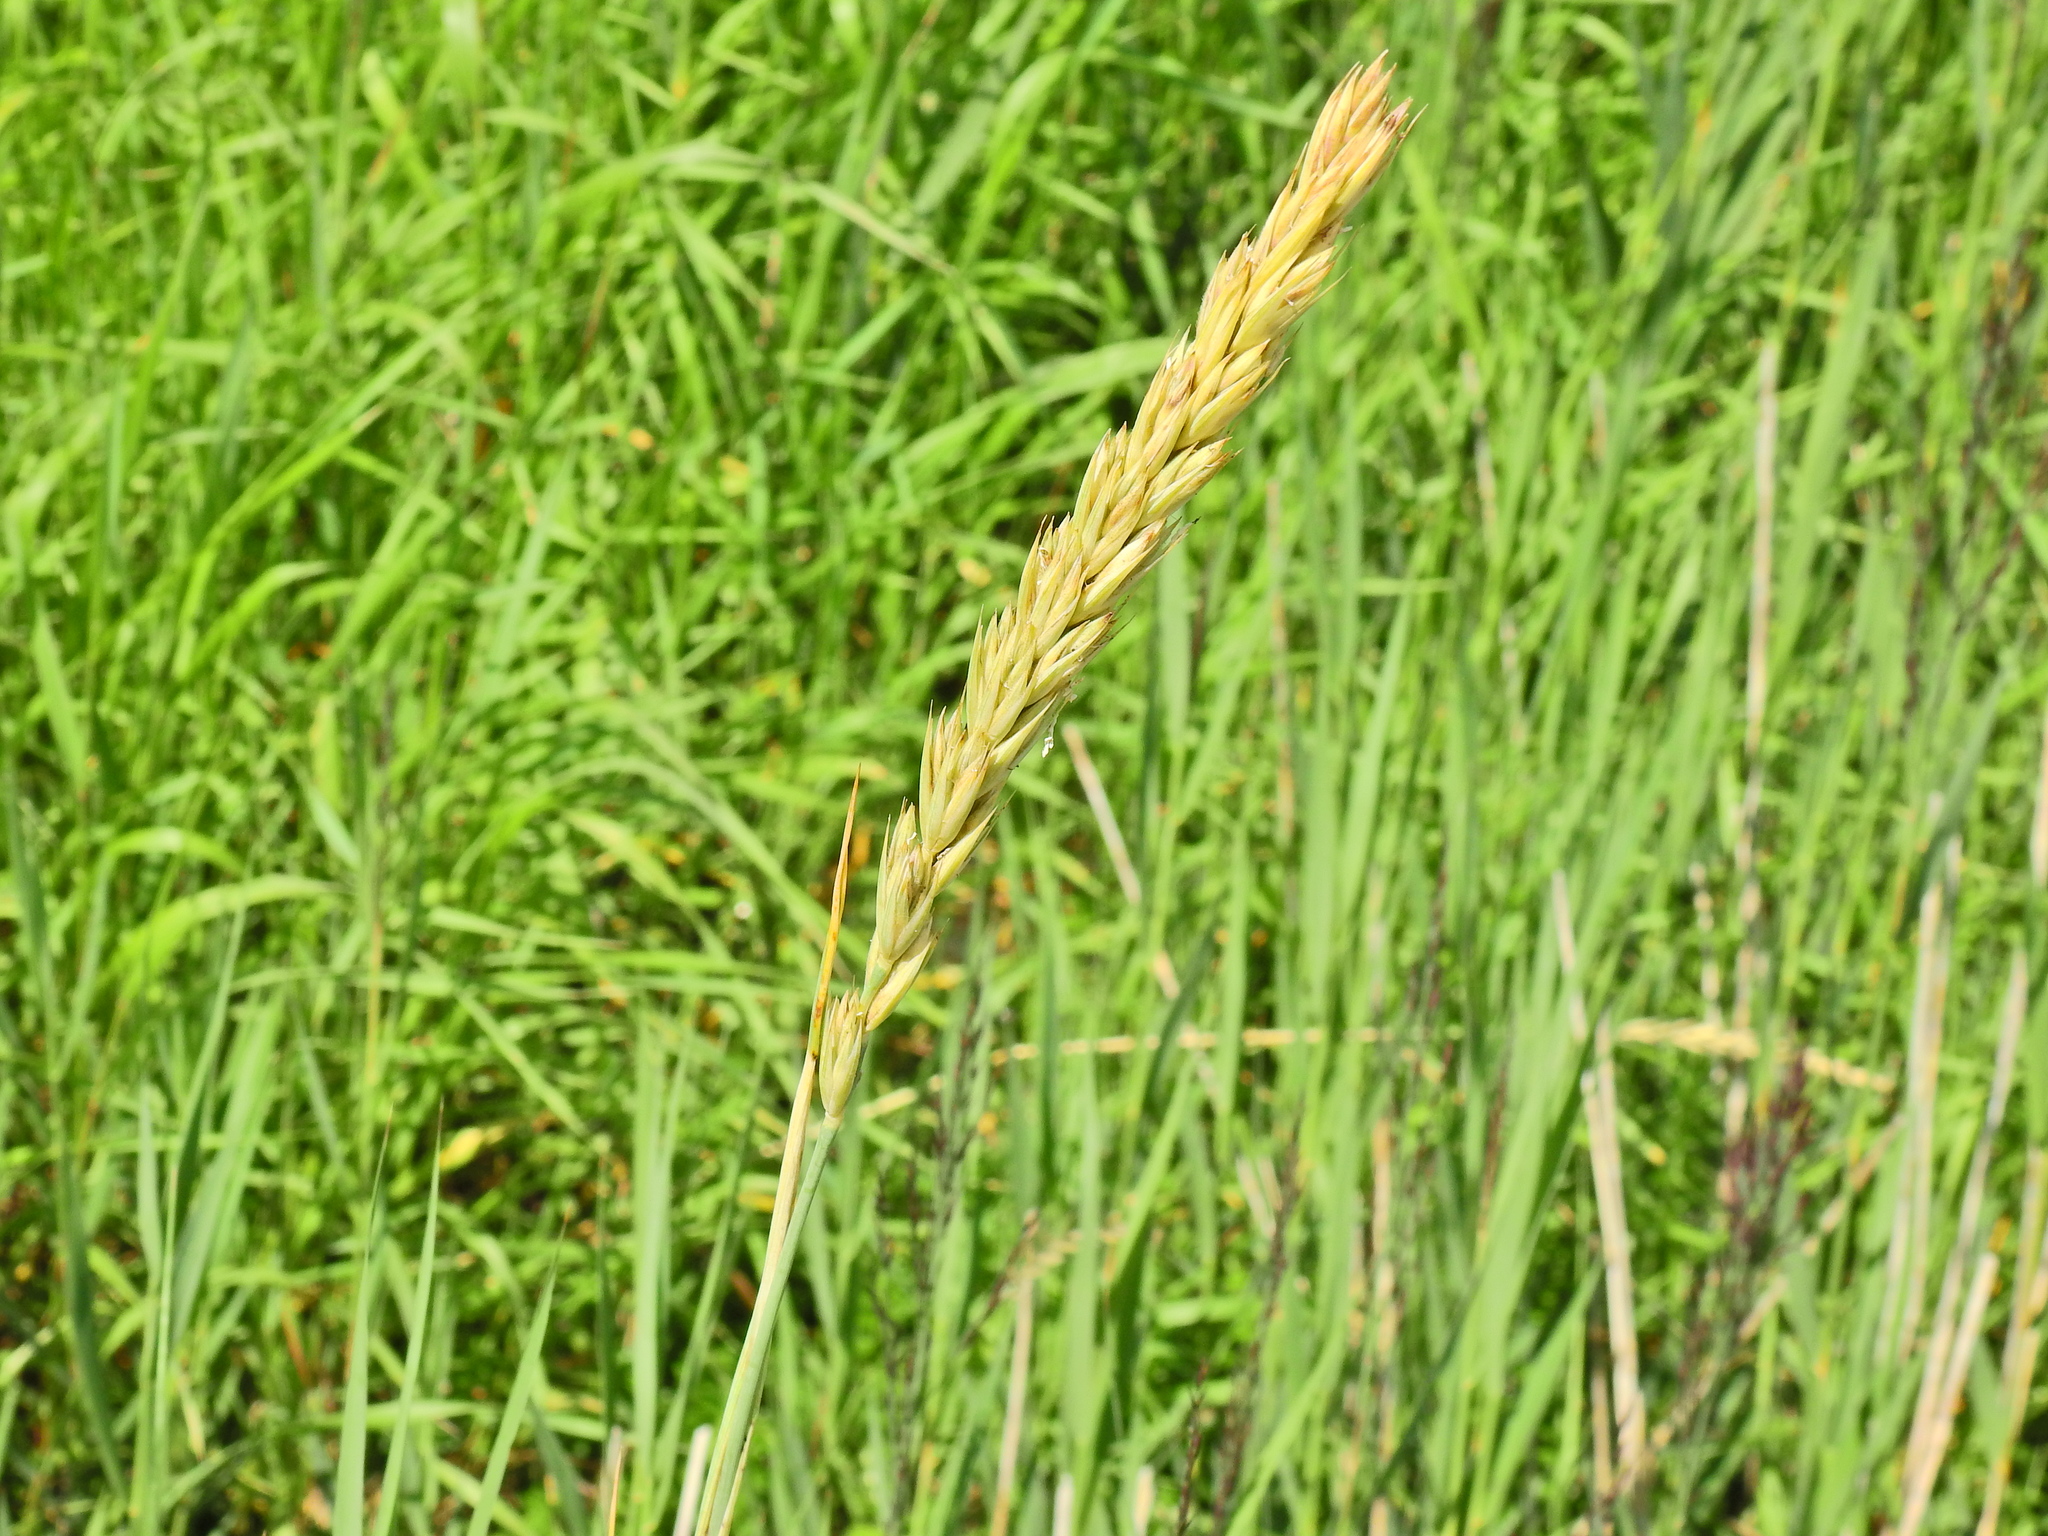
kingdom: Plantae
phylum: Tracheophyta
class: Liliopsida
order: Poales
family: Poaceae
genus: Leymus
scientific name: Leymus arenarius
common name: Lyme-grass
